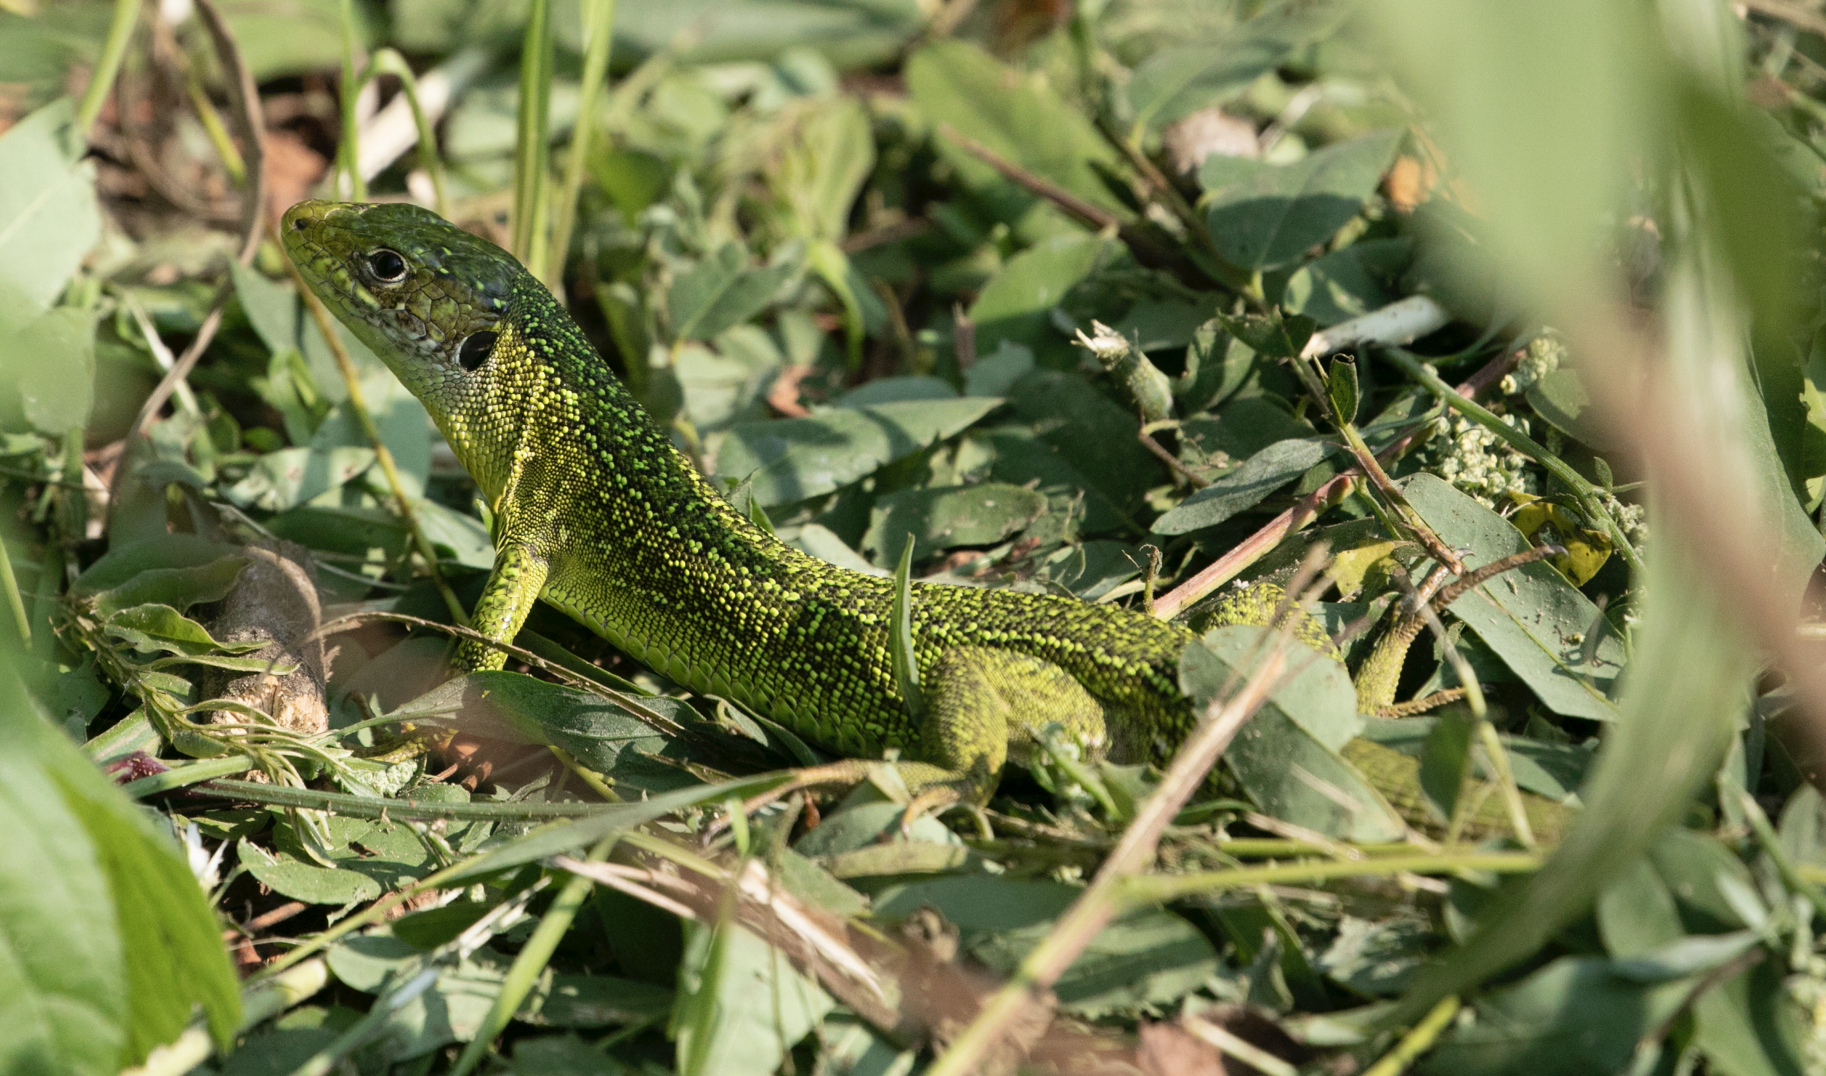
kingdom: Animalia
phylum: Chordata
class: Squamata
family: Lacertidae
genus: Lacerta
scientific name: Lacerta bilineata
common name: Western green lizard
